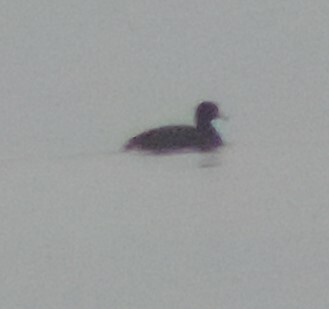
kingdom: Animalia
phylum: Chordata
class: Aves
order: Gruiformes
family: Rallidae
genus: Fulica
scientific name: Fulica americana
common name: American coot
